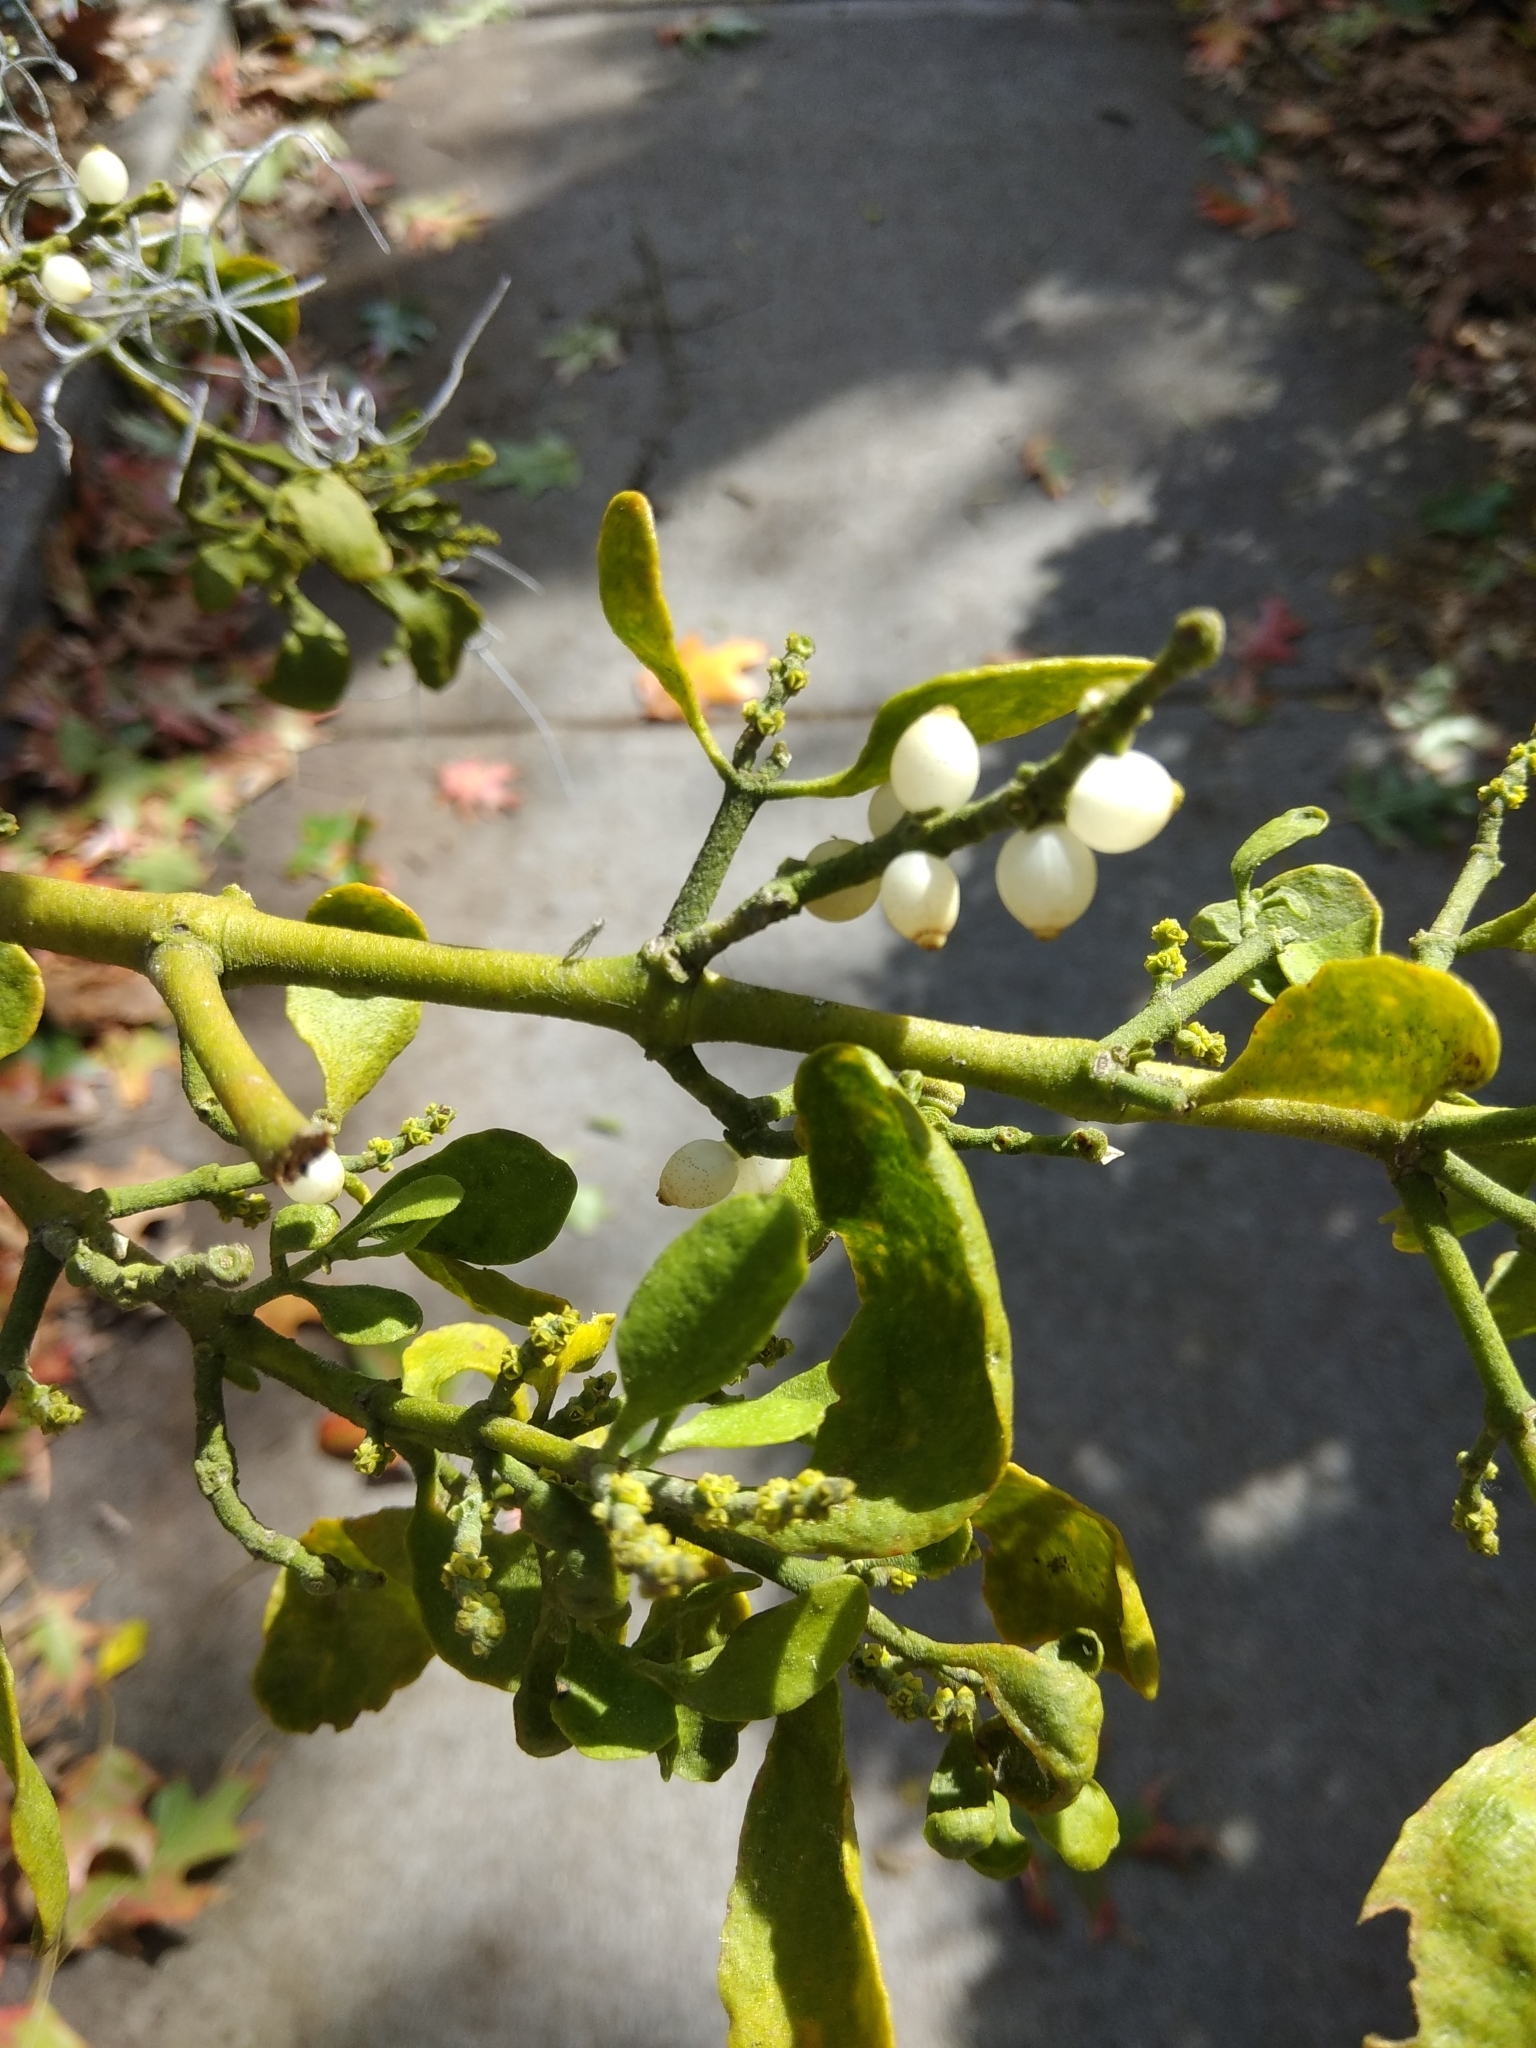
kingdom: Plantae
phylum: Tracheophyta
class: Magnoliopsida
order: Santalales
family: Viscaceae
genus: Phoradendron
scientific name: Phoradendron leucarpum
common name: Pacific mistletoe
